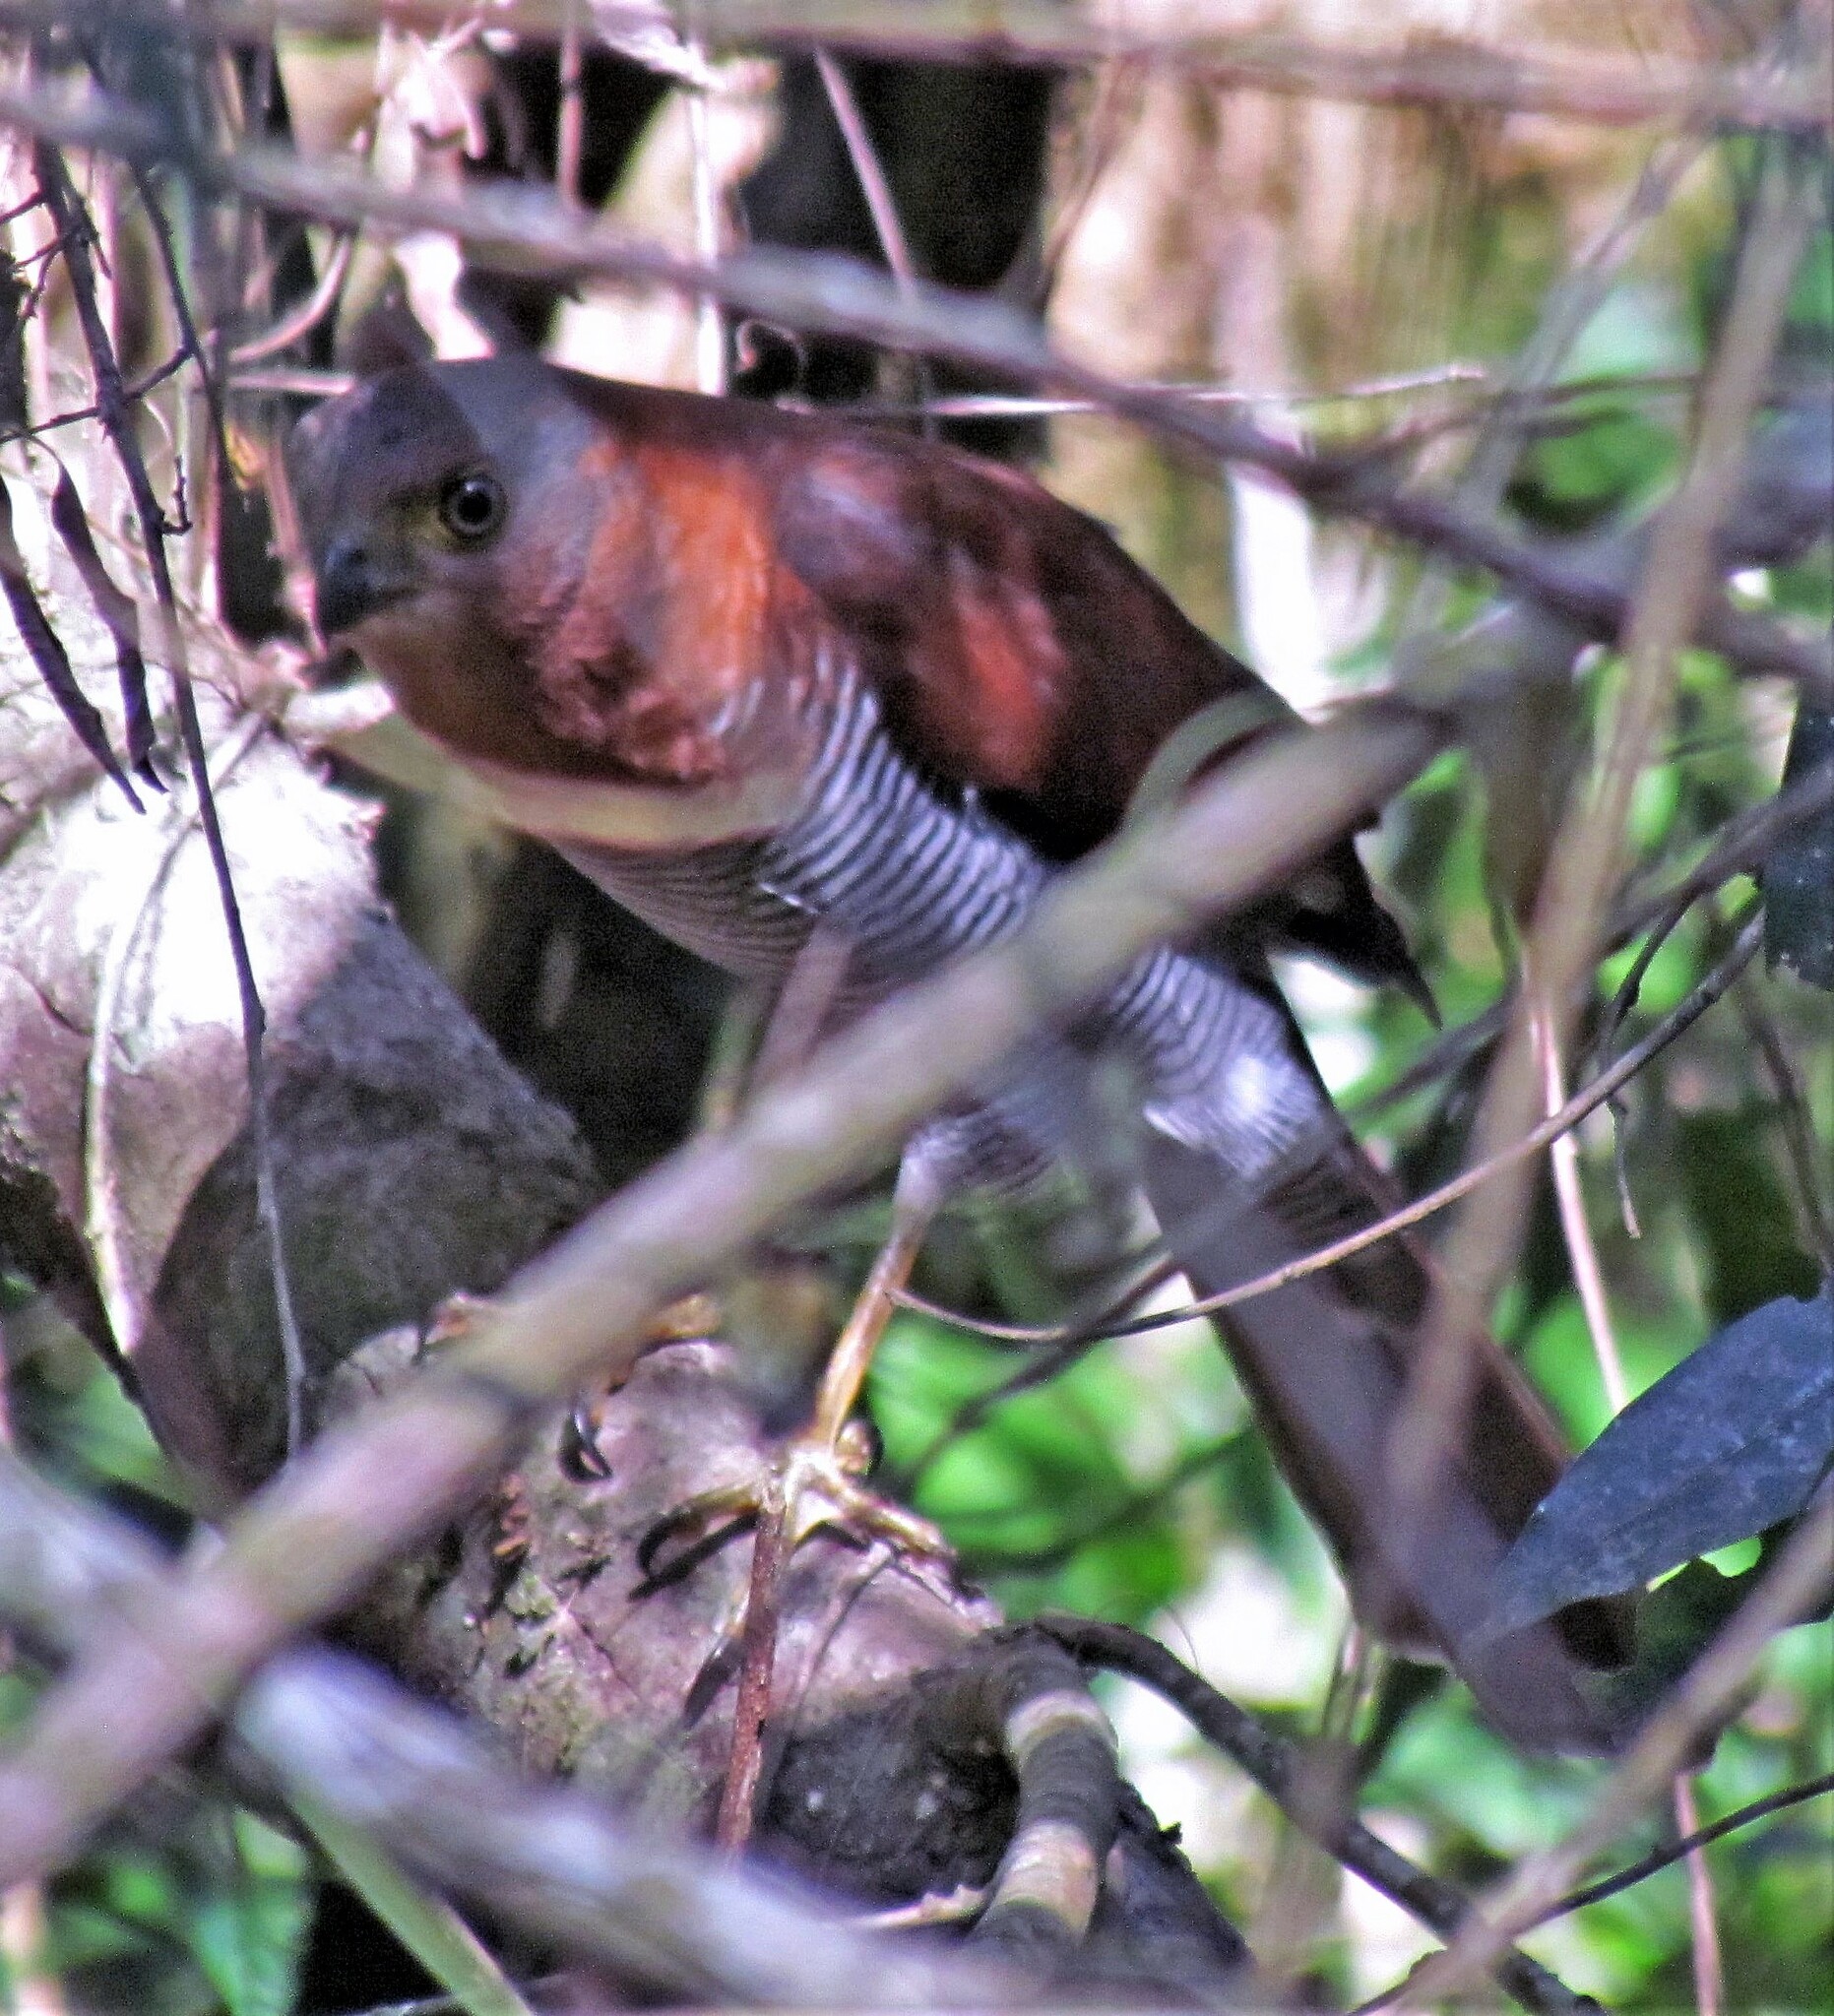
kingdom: Animalia
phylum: Chordata
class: Aves
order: Falconiformes
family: Falconidae
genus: Micrastur
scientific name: Micrastur ruficollis
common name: Barred forest-falcon
